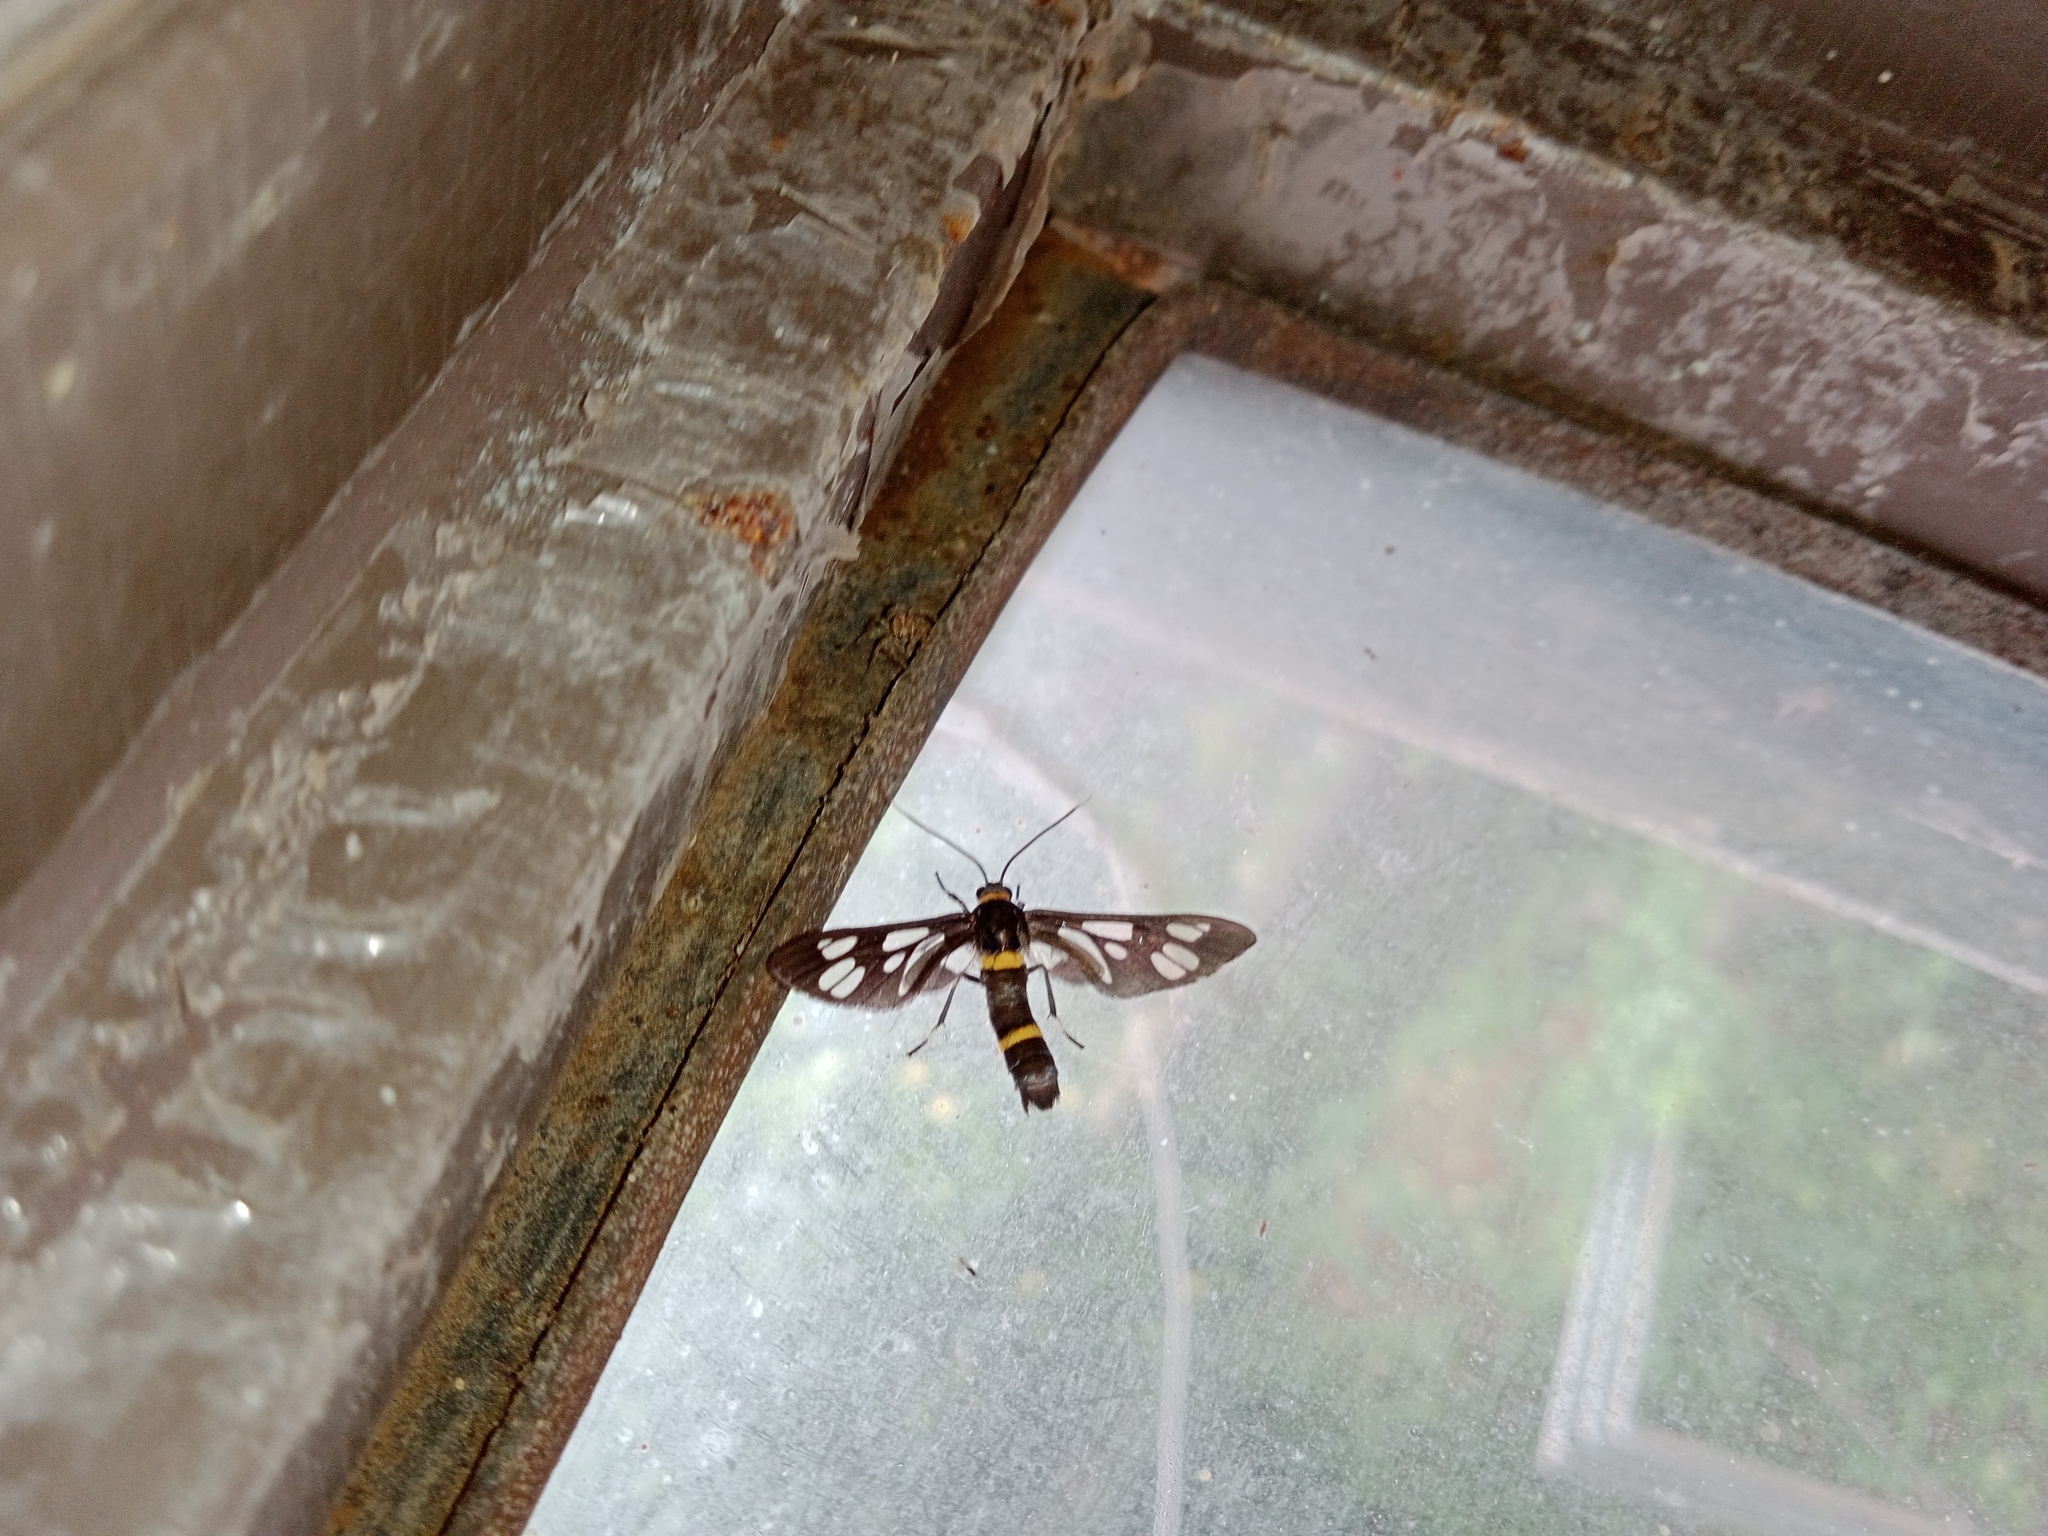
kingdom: Animalia
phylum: Arthropoda
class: Insecta
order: Lepidoptera
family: Erebidae
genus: Syntomoides
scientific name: Syntomoides imaon
